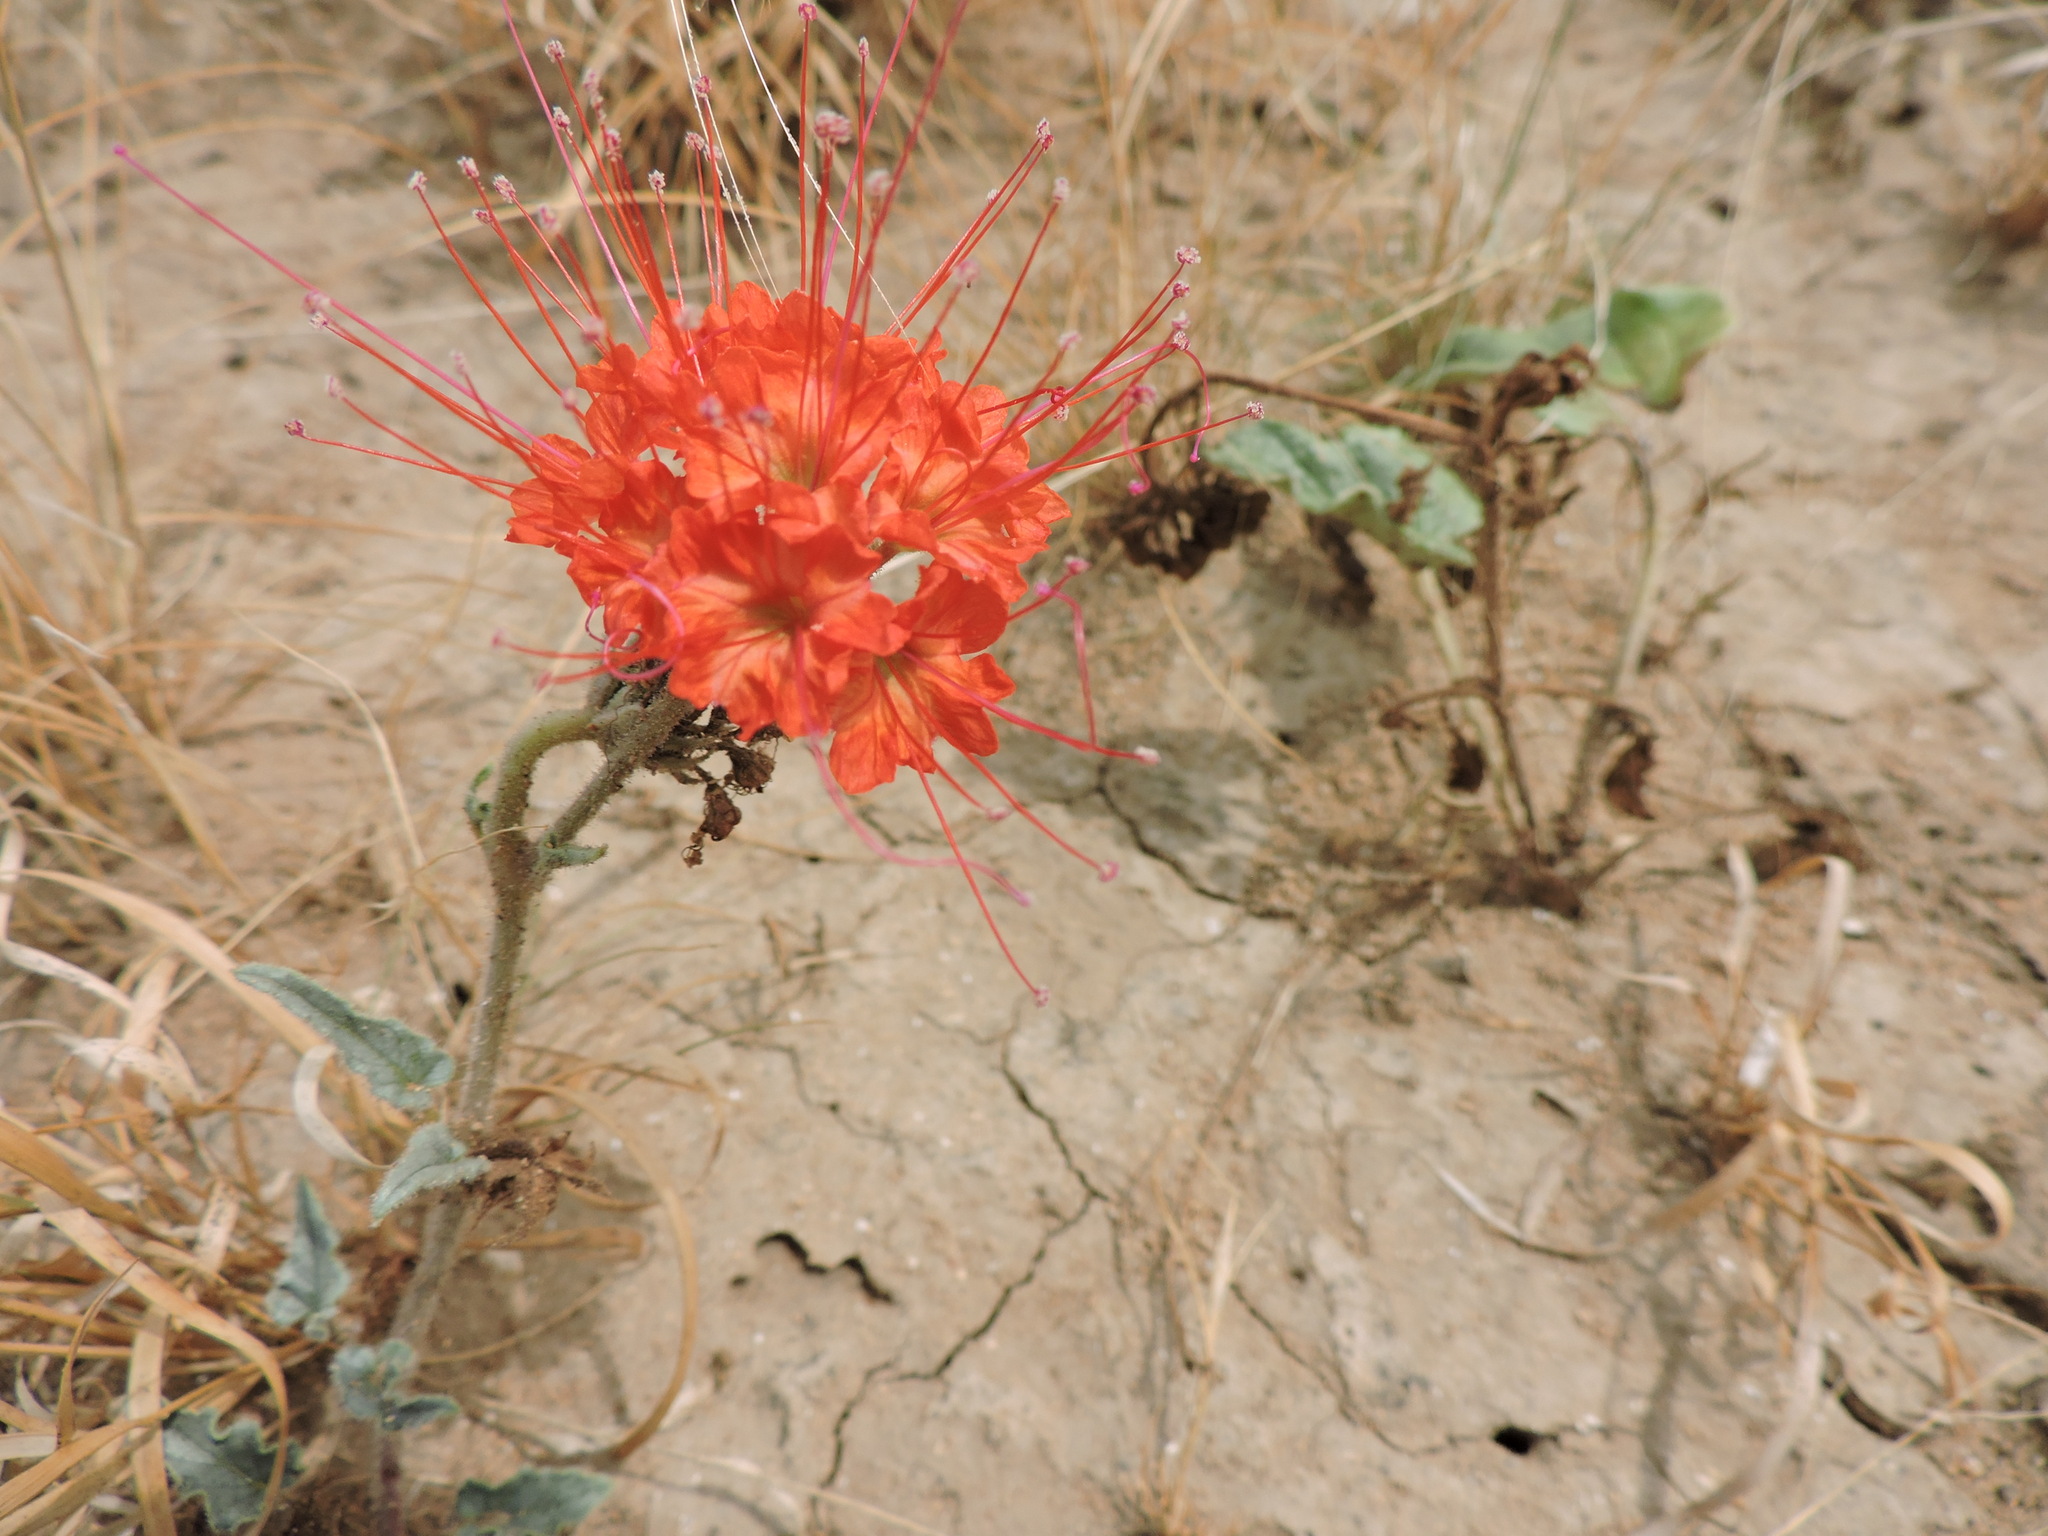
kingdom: Plantae
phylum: Tracheophyta
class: Magnoliopsida
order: Caryophyllales
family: Nyctaginaceae
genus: Nyctaginia
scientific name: Nyctaginia capitata
